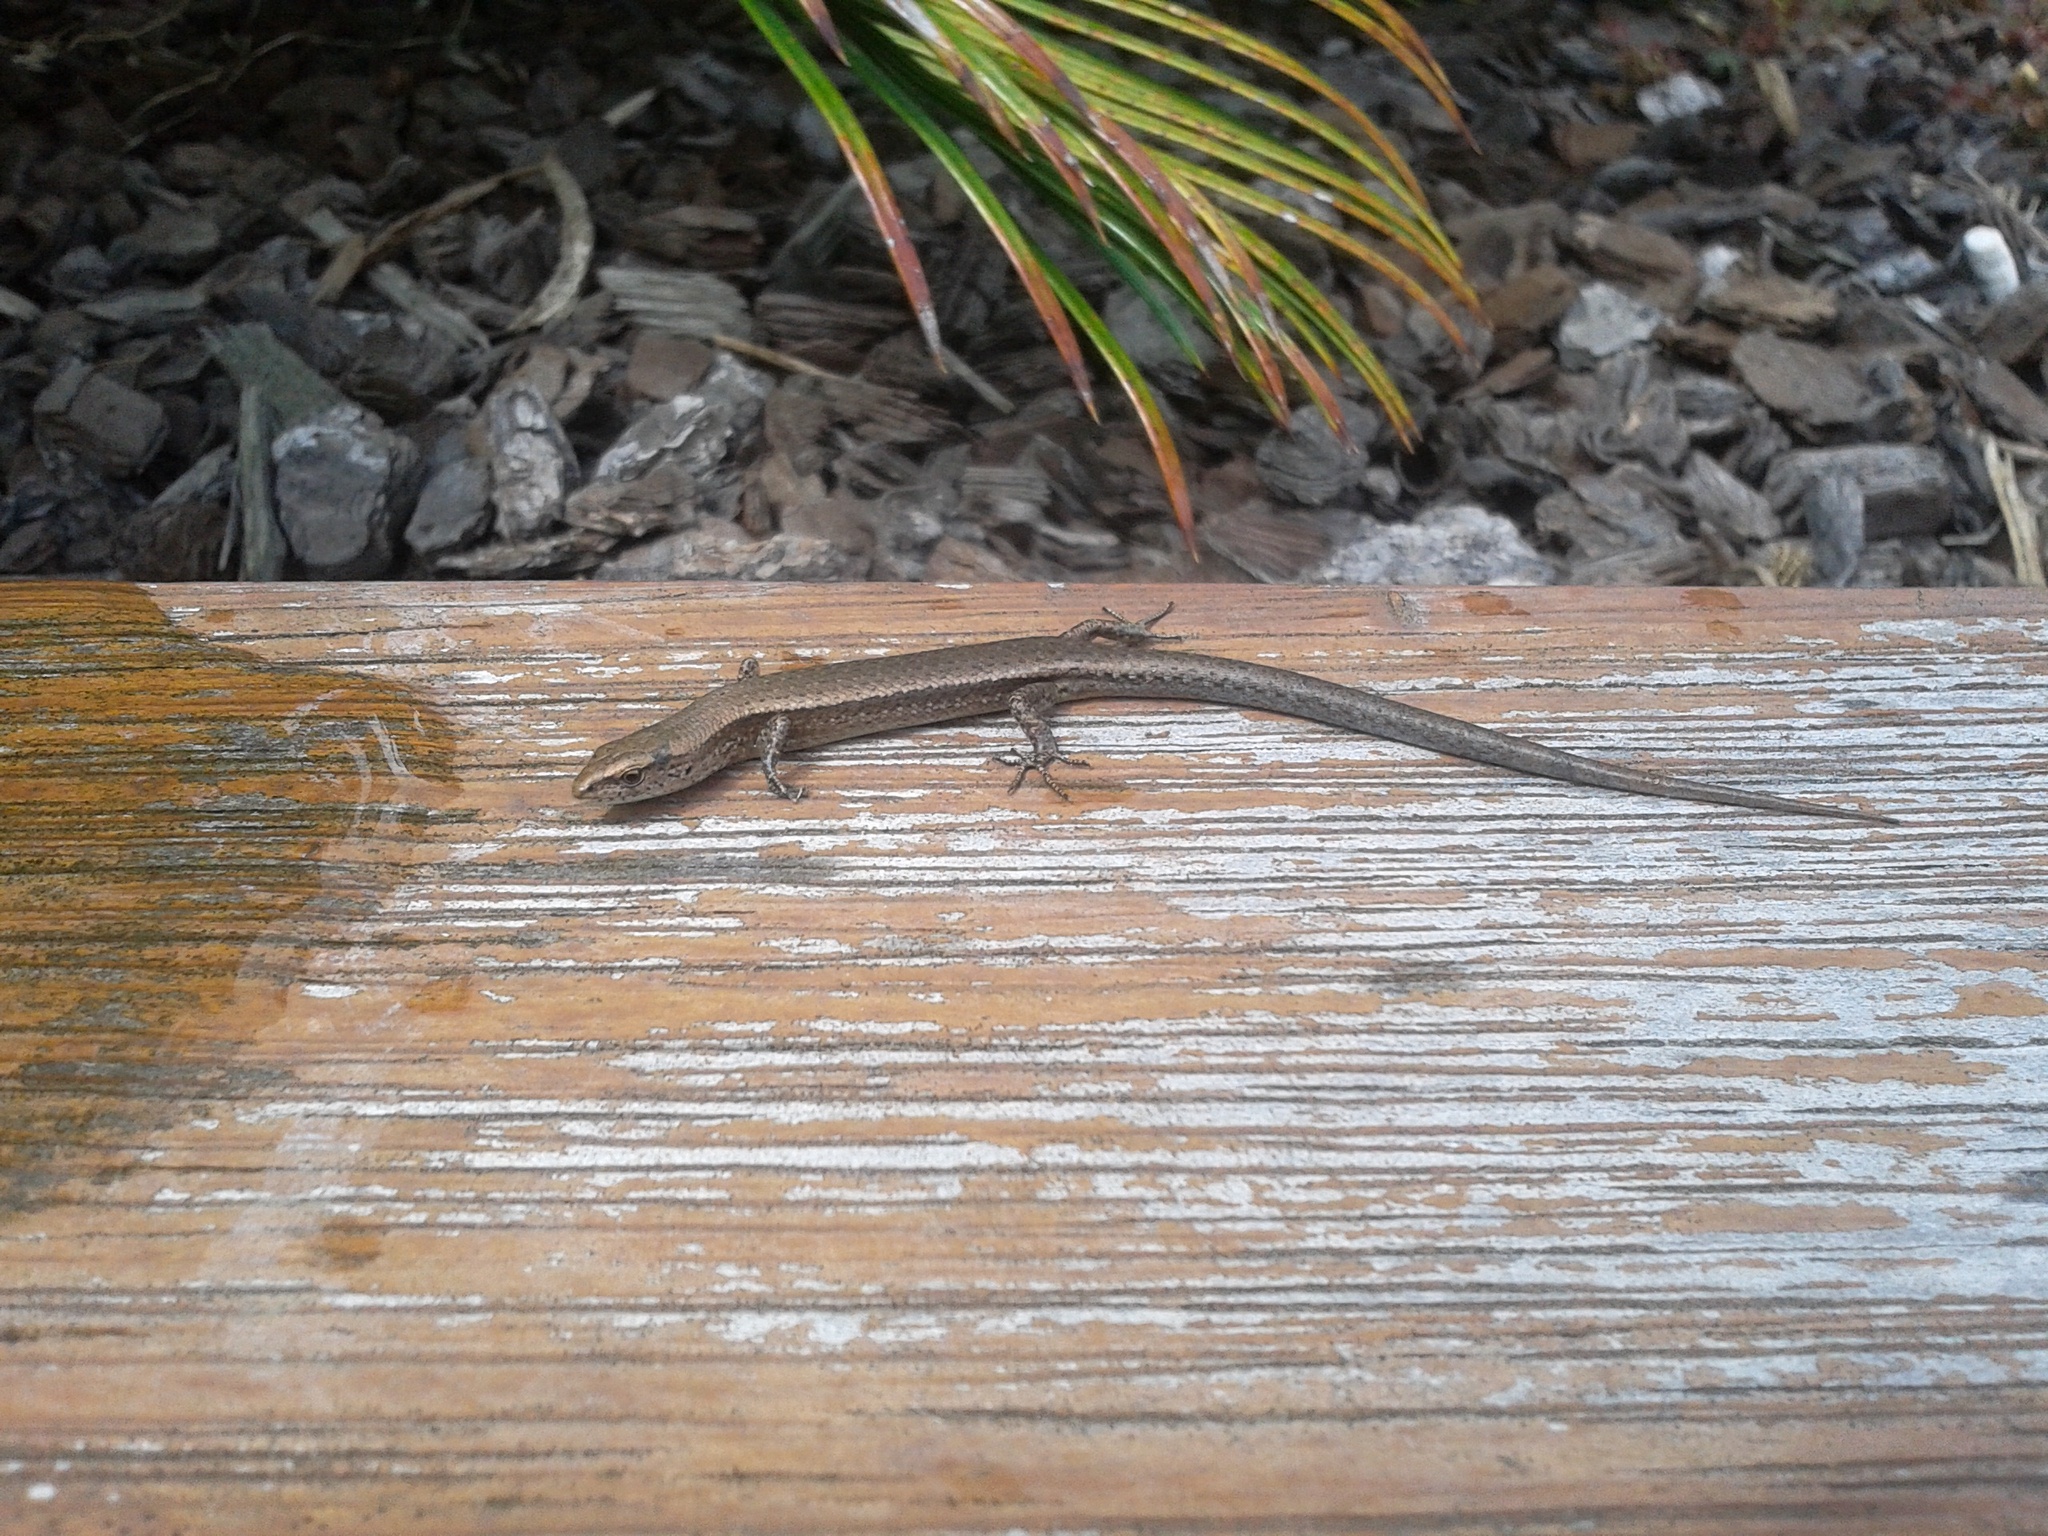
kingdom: Animalia
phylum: Chordata
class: Squamata
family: Scincidae
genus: Lampropholis
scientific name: Lampropholis delicata
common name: Plague skink
